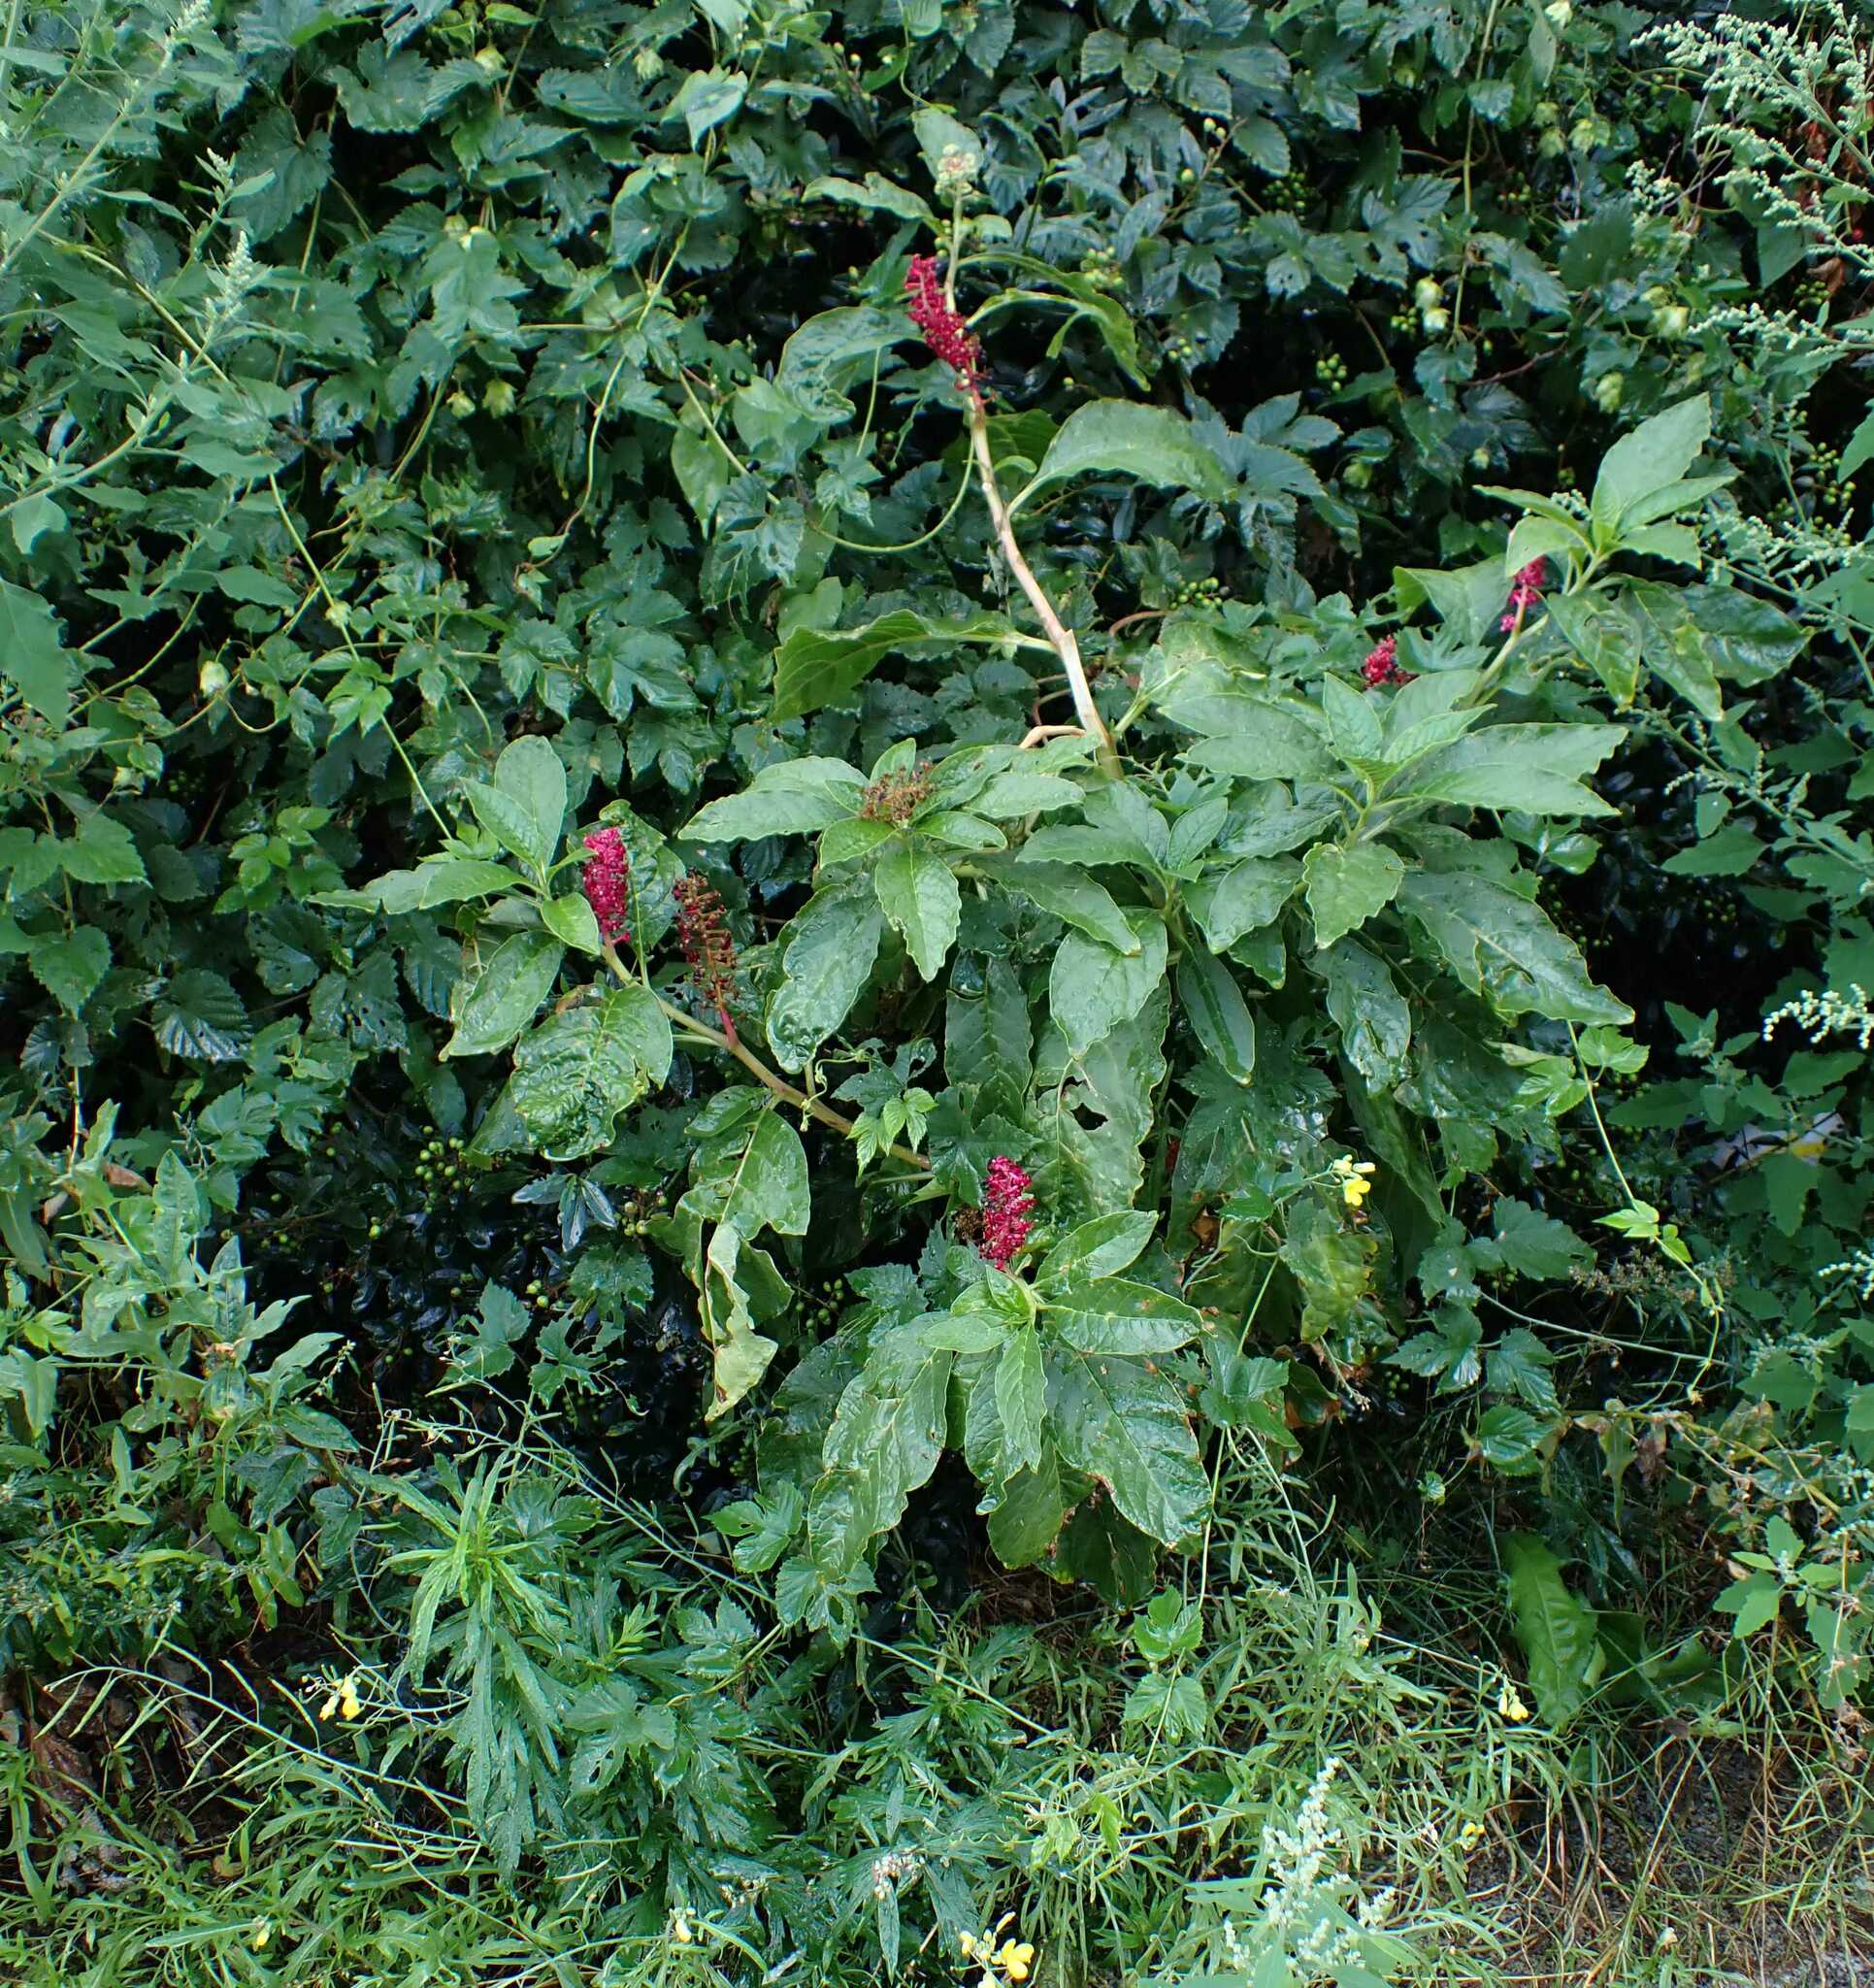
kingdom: Plantae
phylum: Tracheophyta
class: Magnoliopsida
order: Caryophyllales
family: Phytolaccaceae
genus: Phytolacca
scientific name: Phytolacca acinosa
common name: Indian pokeweed
